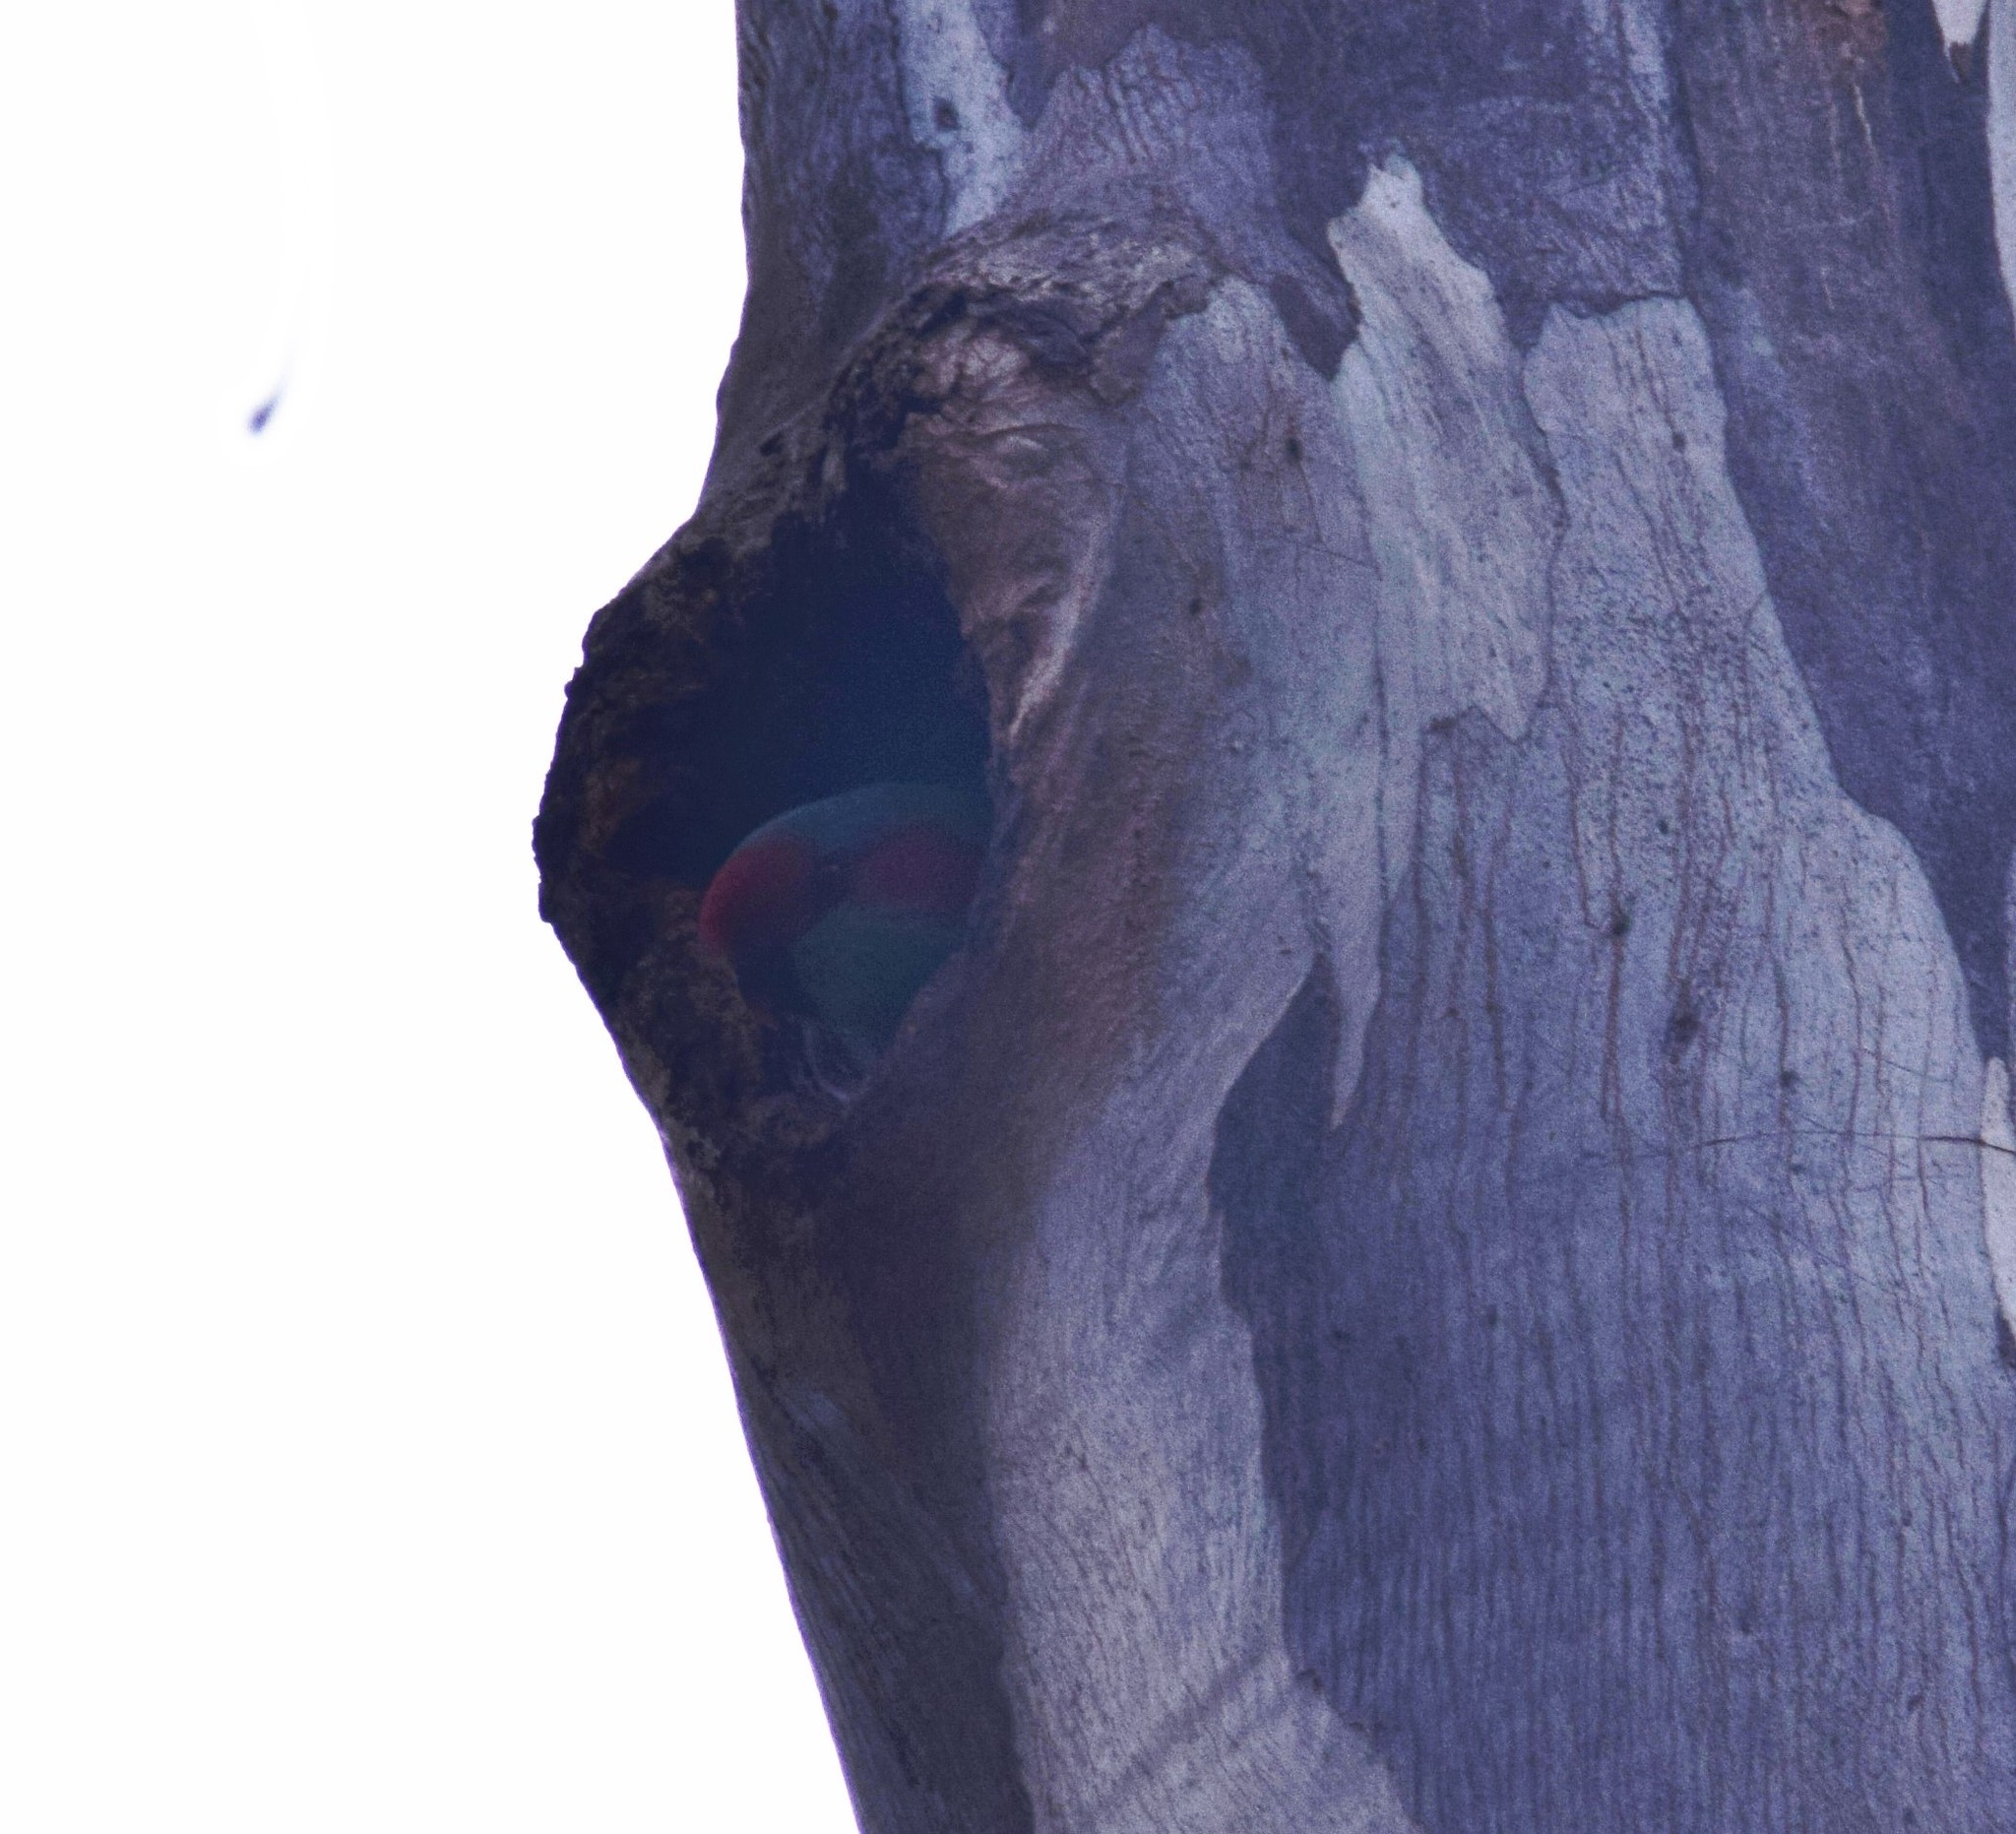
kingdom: Animalia
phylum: Chordata
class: Aves
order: Psittaciformes
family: Psittacidae
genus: Glossopsitta
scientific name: Glossopsitta concinna
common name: Musk lorikeet
